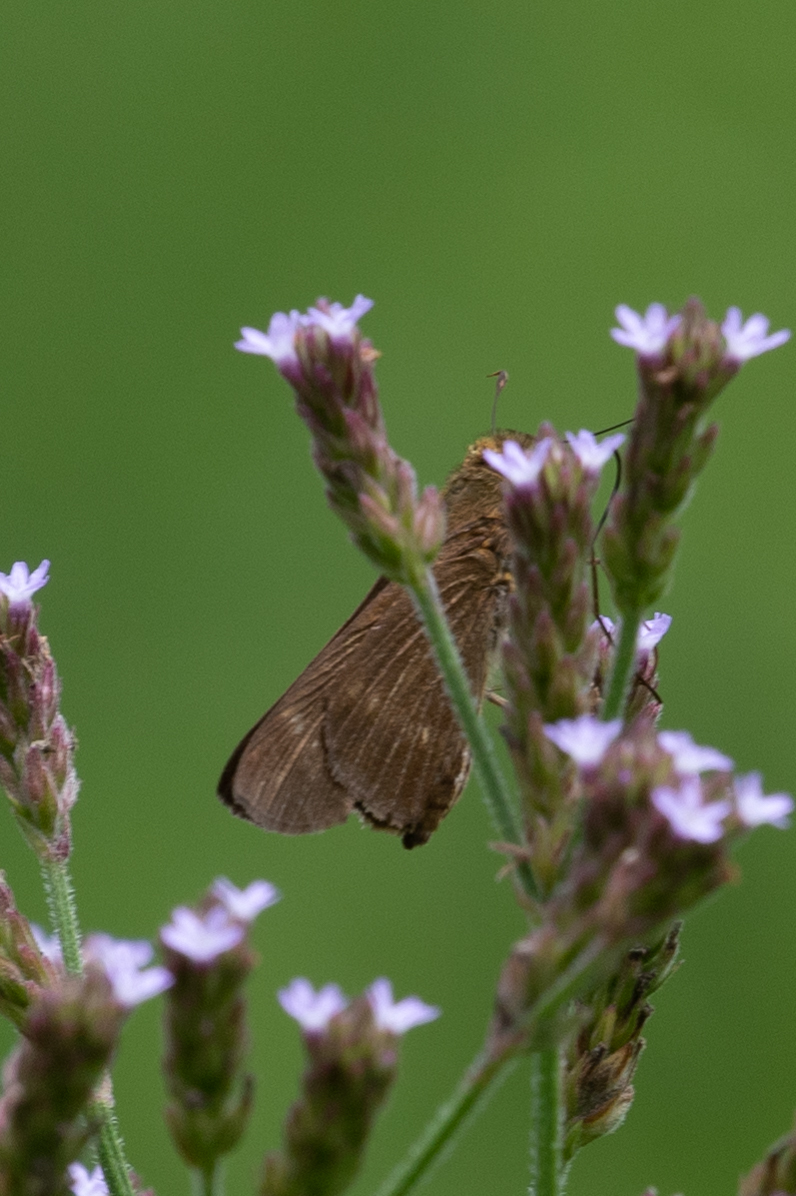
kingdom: Animalia
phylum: Arthropoda
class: Insecta
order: Lepidoptera
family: Hesperiidae
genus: Panoquina
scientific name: Panoquina ocola
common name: Ocola skipper
